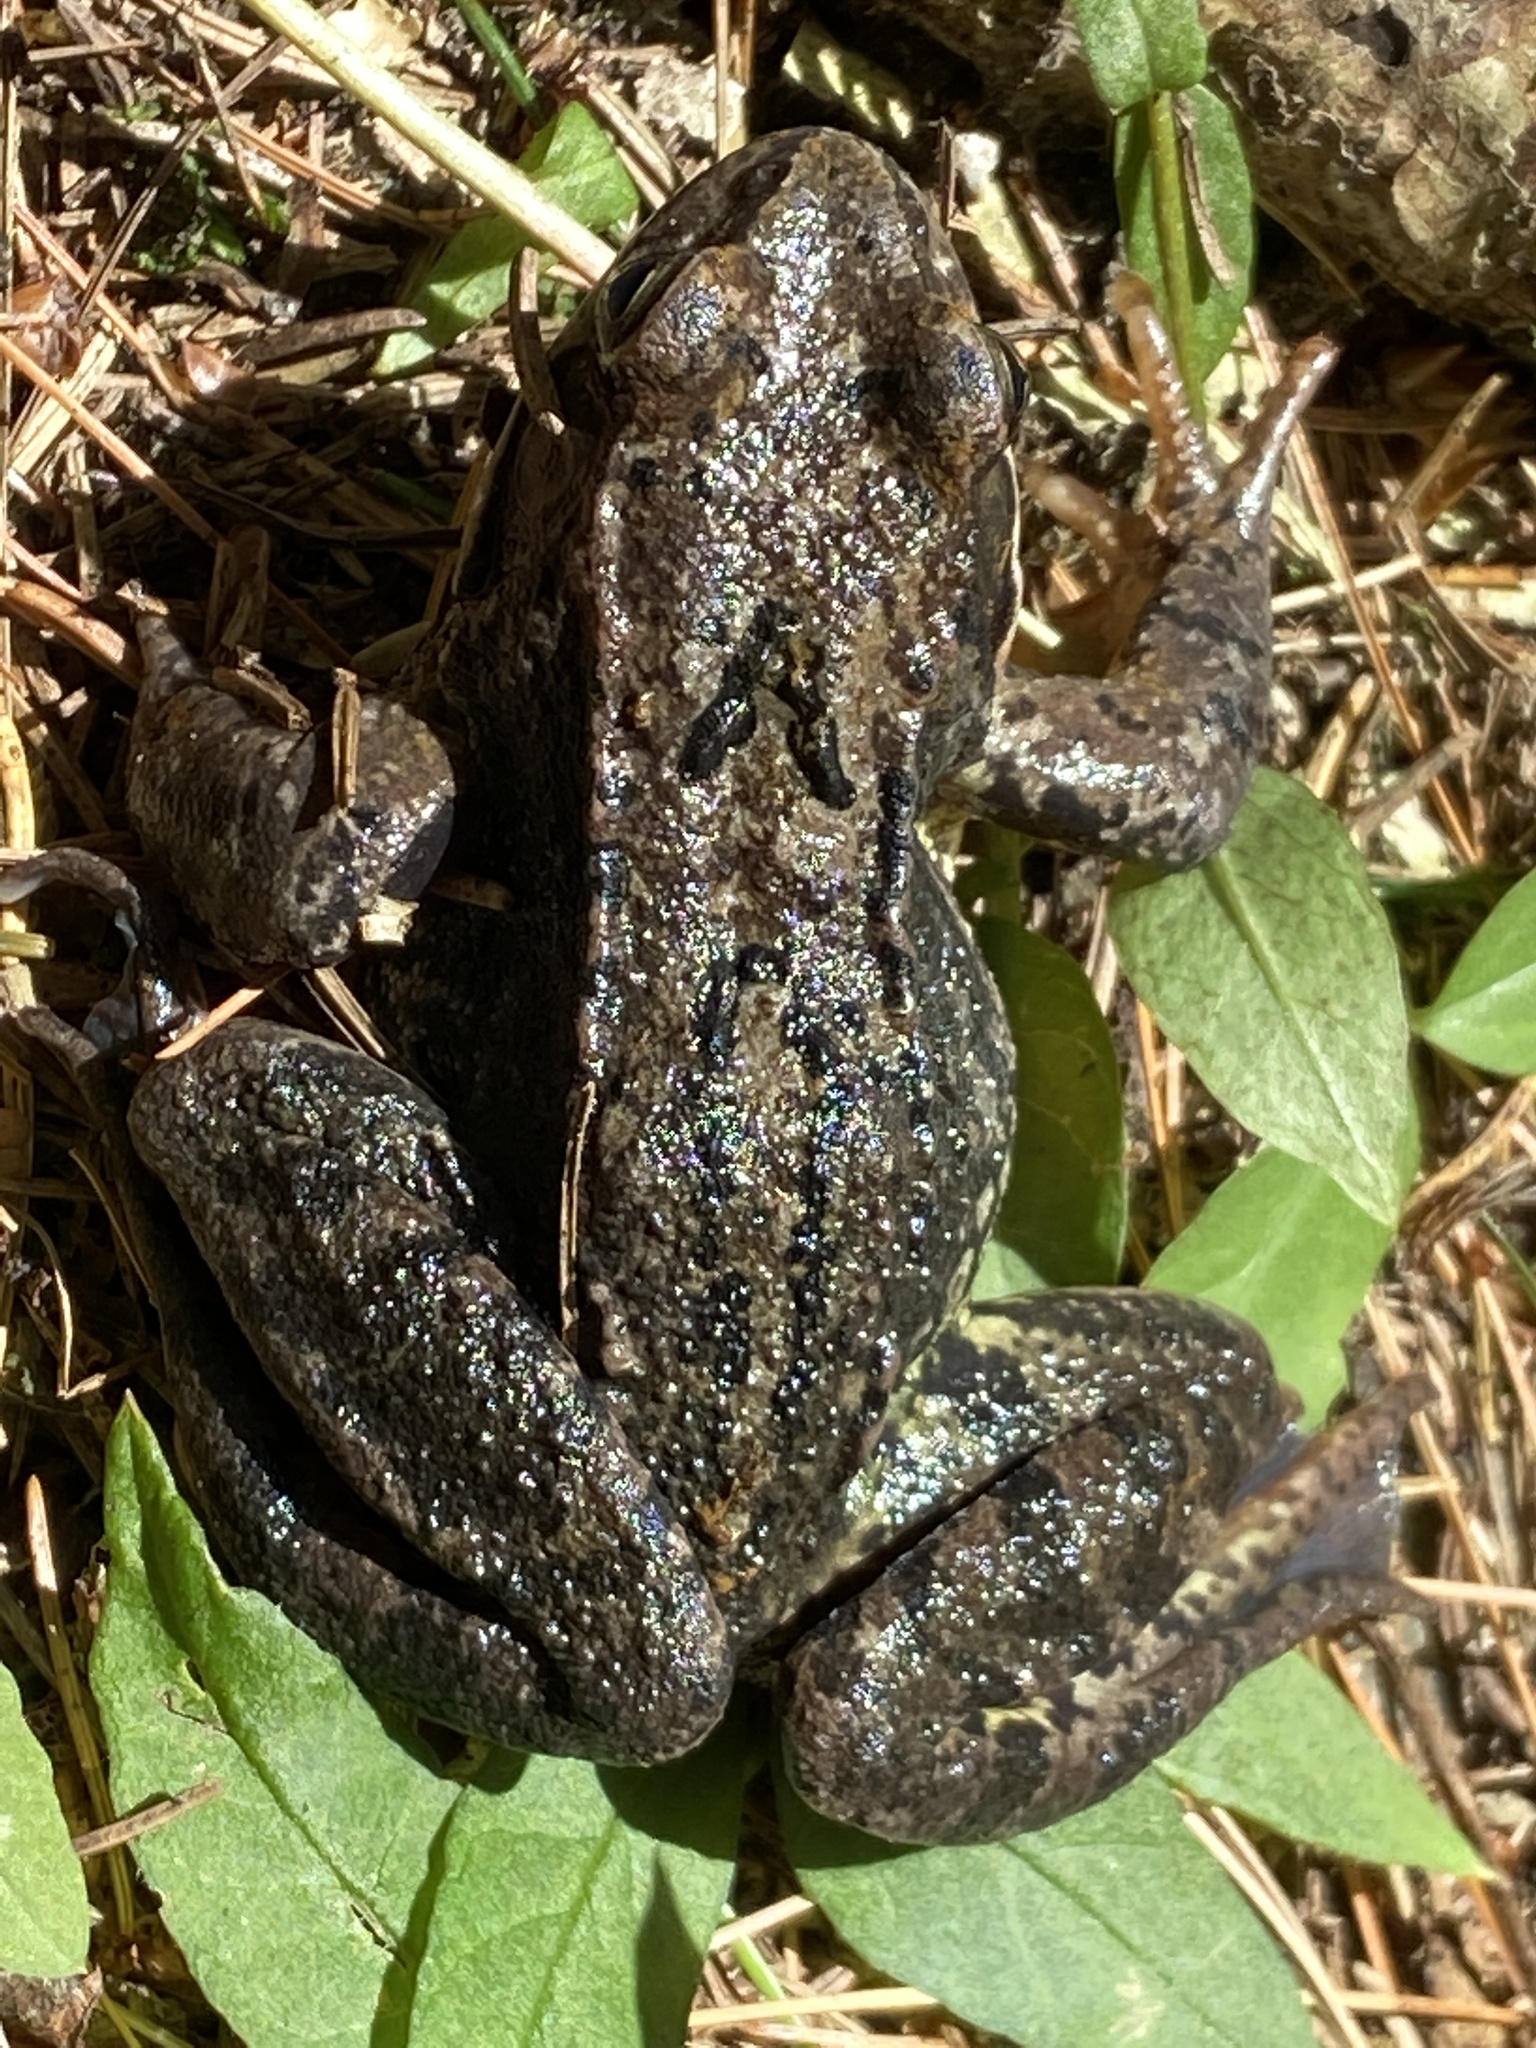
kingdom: Animalia
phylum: Chordata
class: Amphibia
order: Anura
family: Ranidae
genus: Rana
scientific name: Rana temporaria
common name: Common frog
